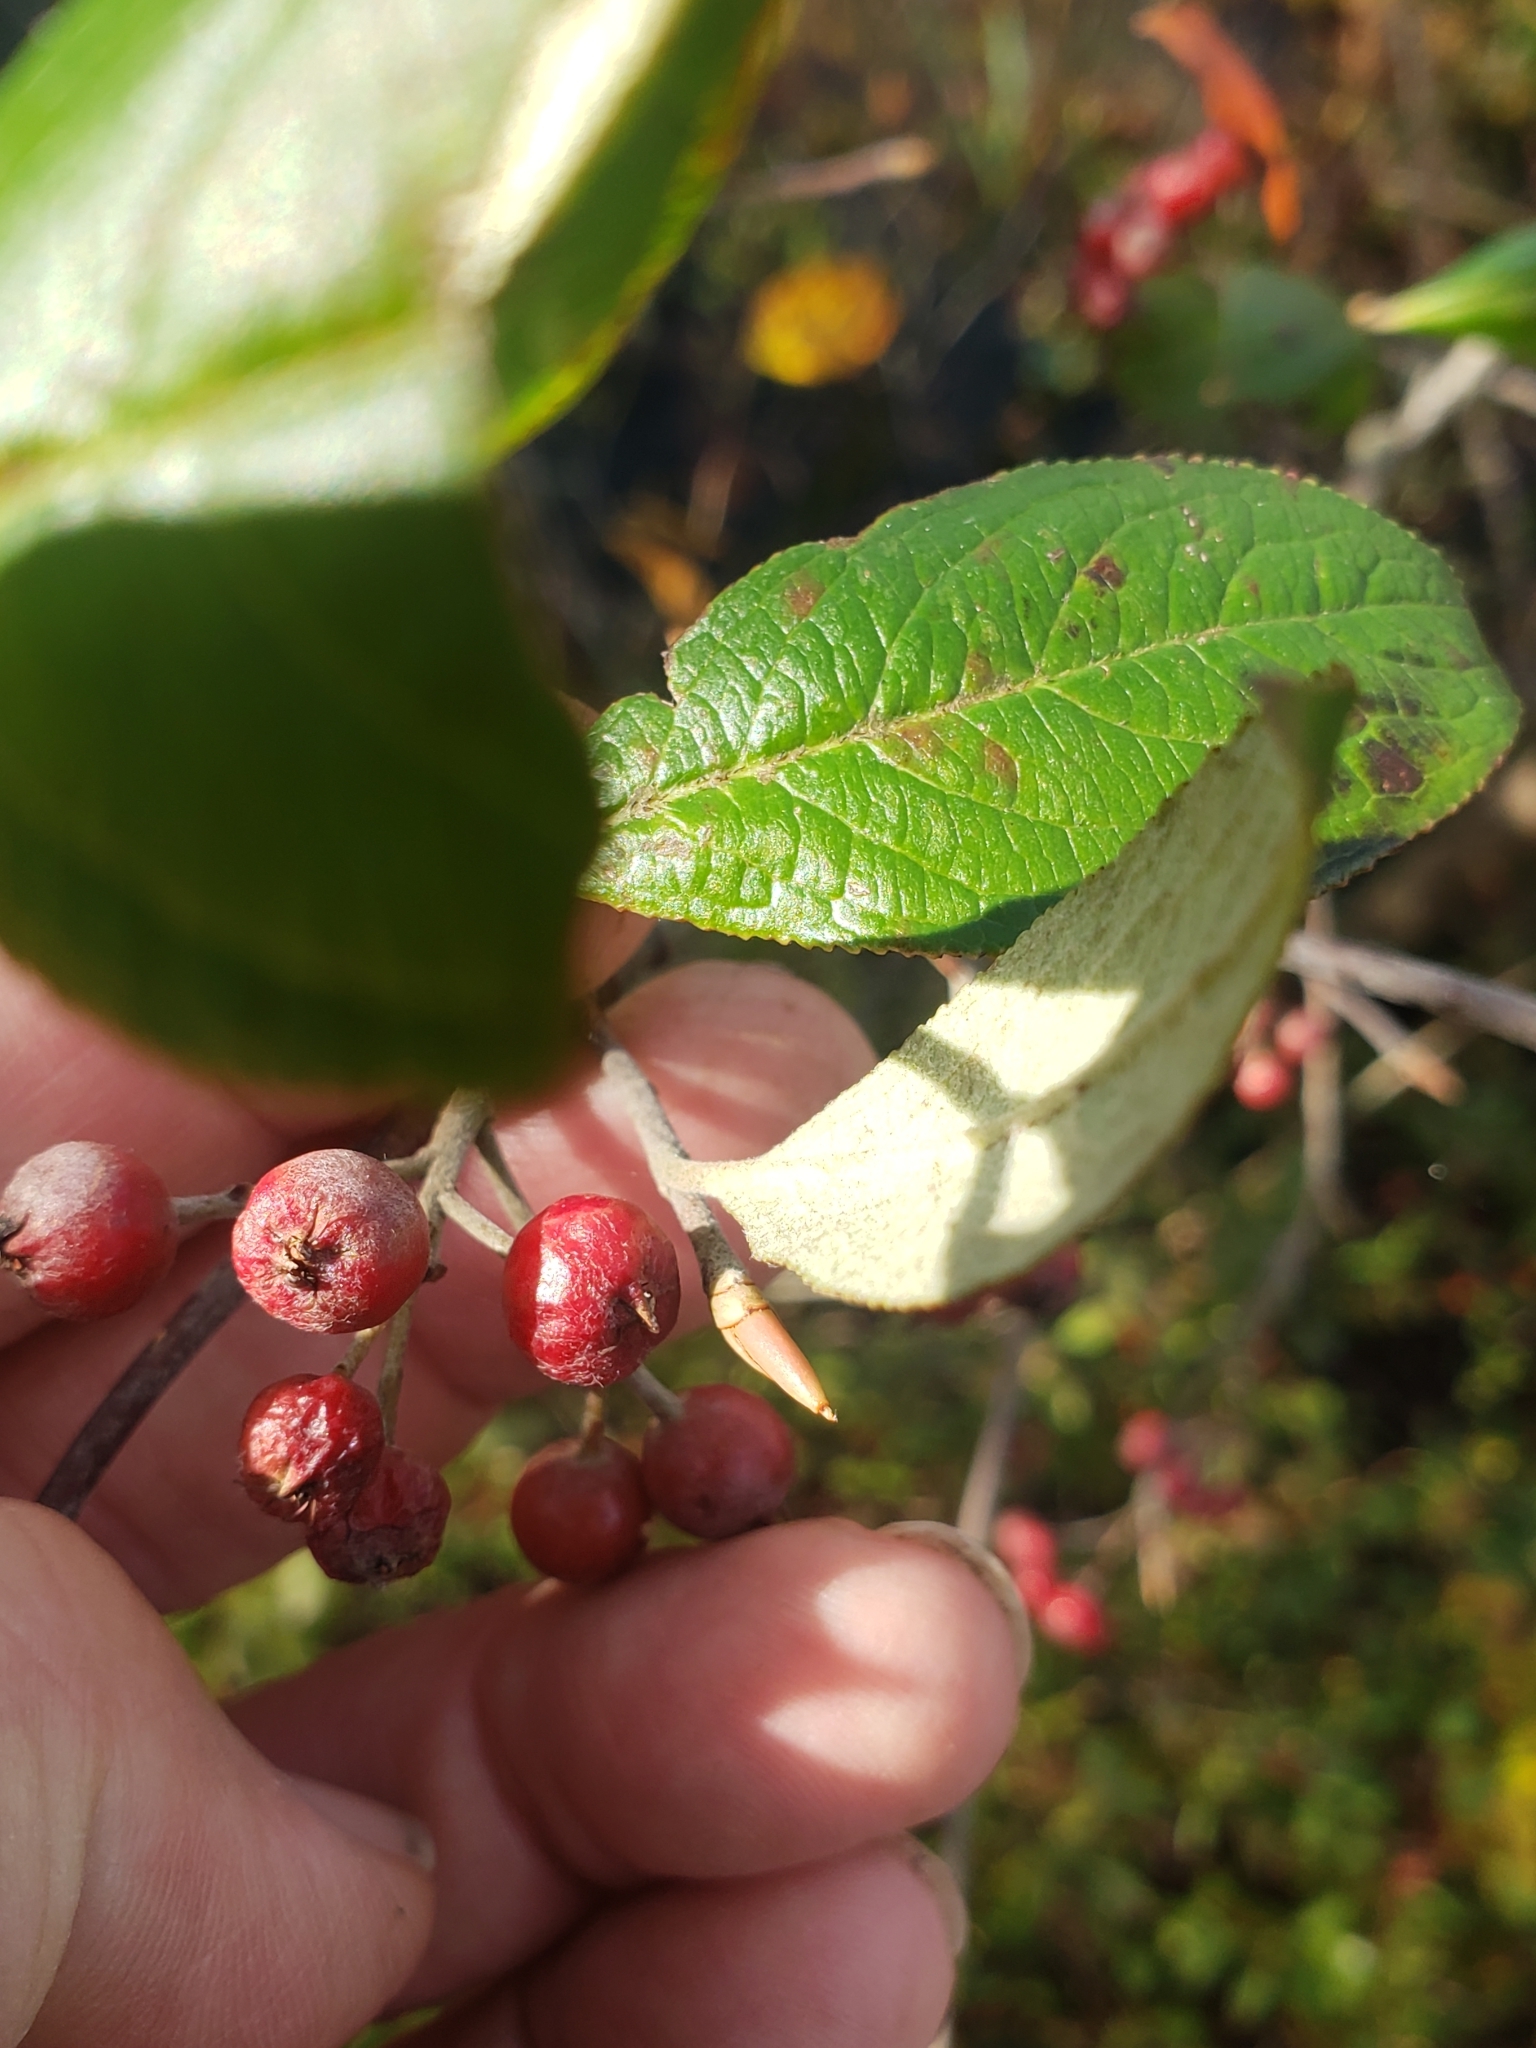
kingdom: Plantae
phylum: Tracheophyta
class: Magnoliopsida
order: Rosales
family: Rosaceae
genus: Aronia
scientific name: Aronia arbutifolia
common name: Red chokeberry
